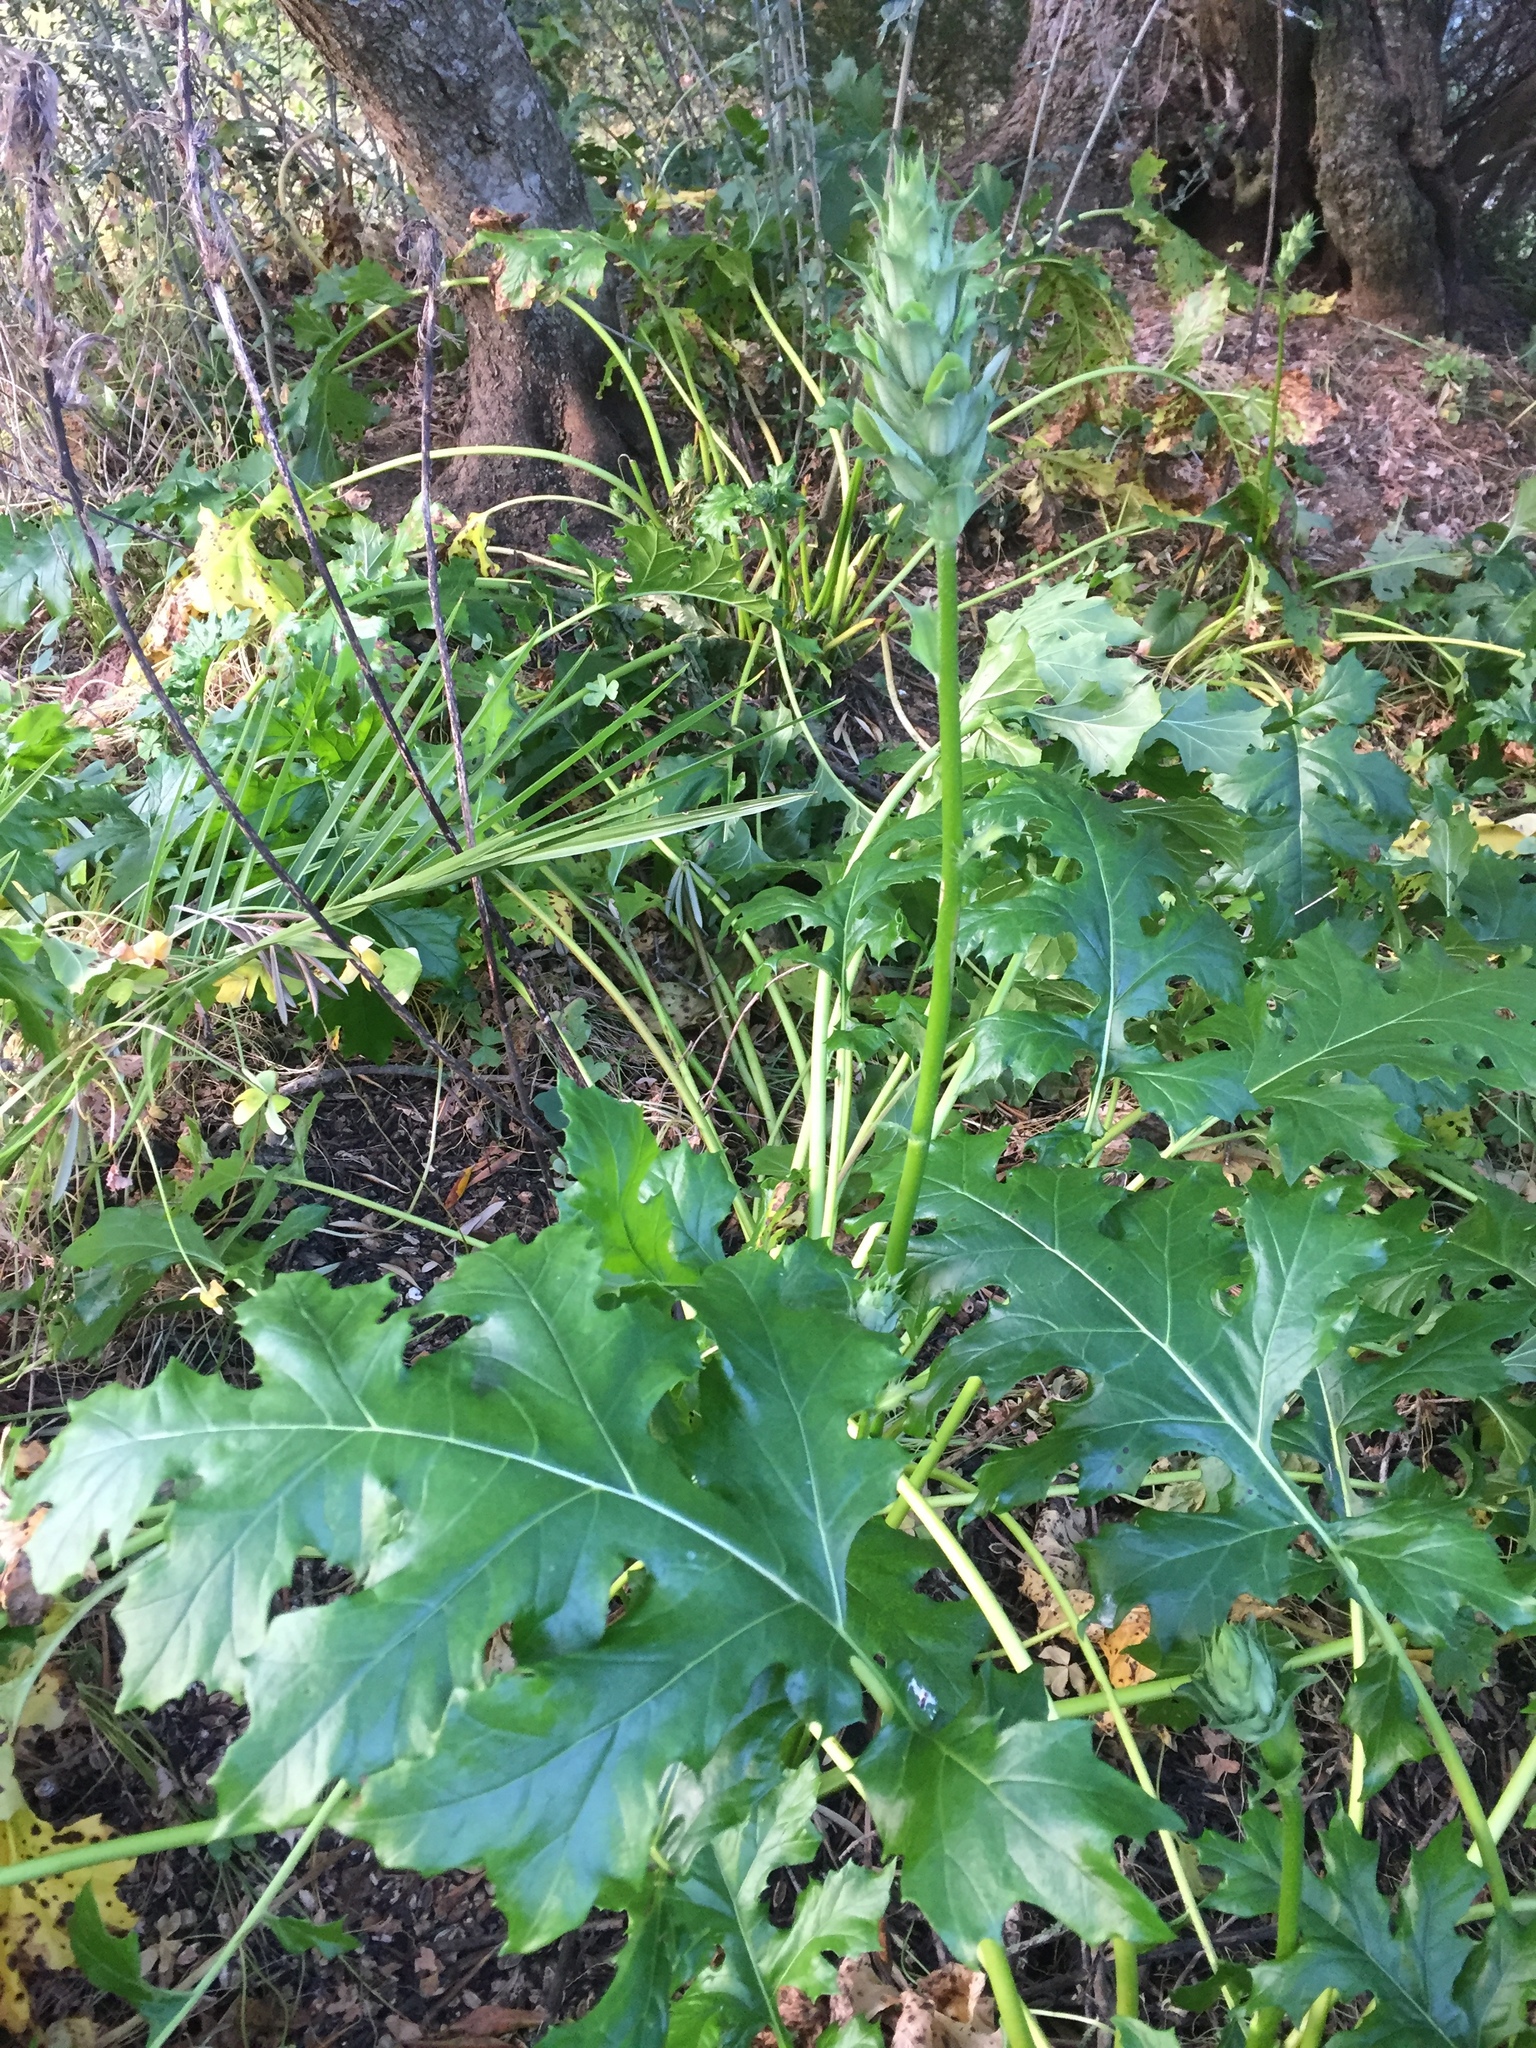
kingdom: Plantae
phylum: Tracheophyta
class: Magnoliopsida
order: Lamiales
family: Acanthaceae
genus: Acanthus
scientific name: Acanthus mollis
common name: Bear's-breech
